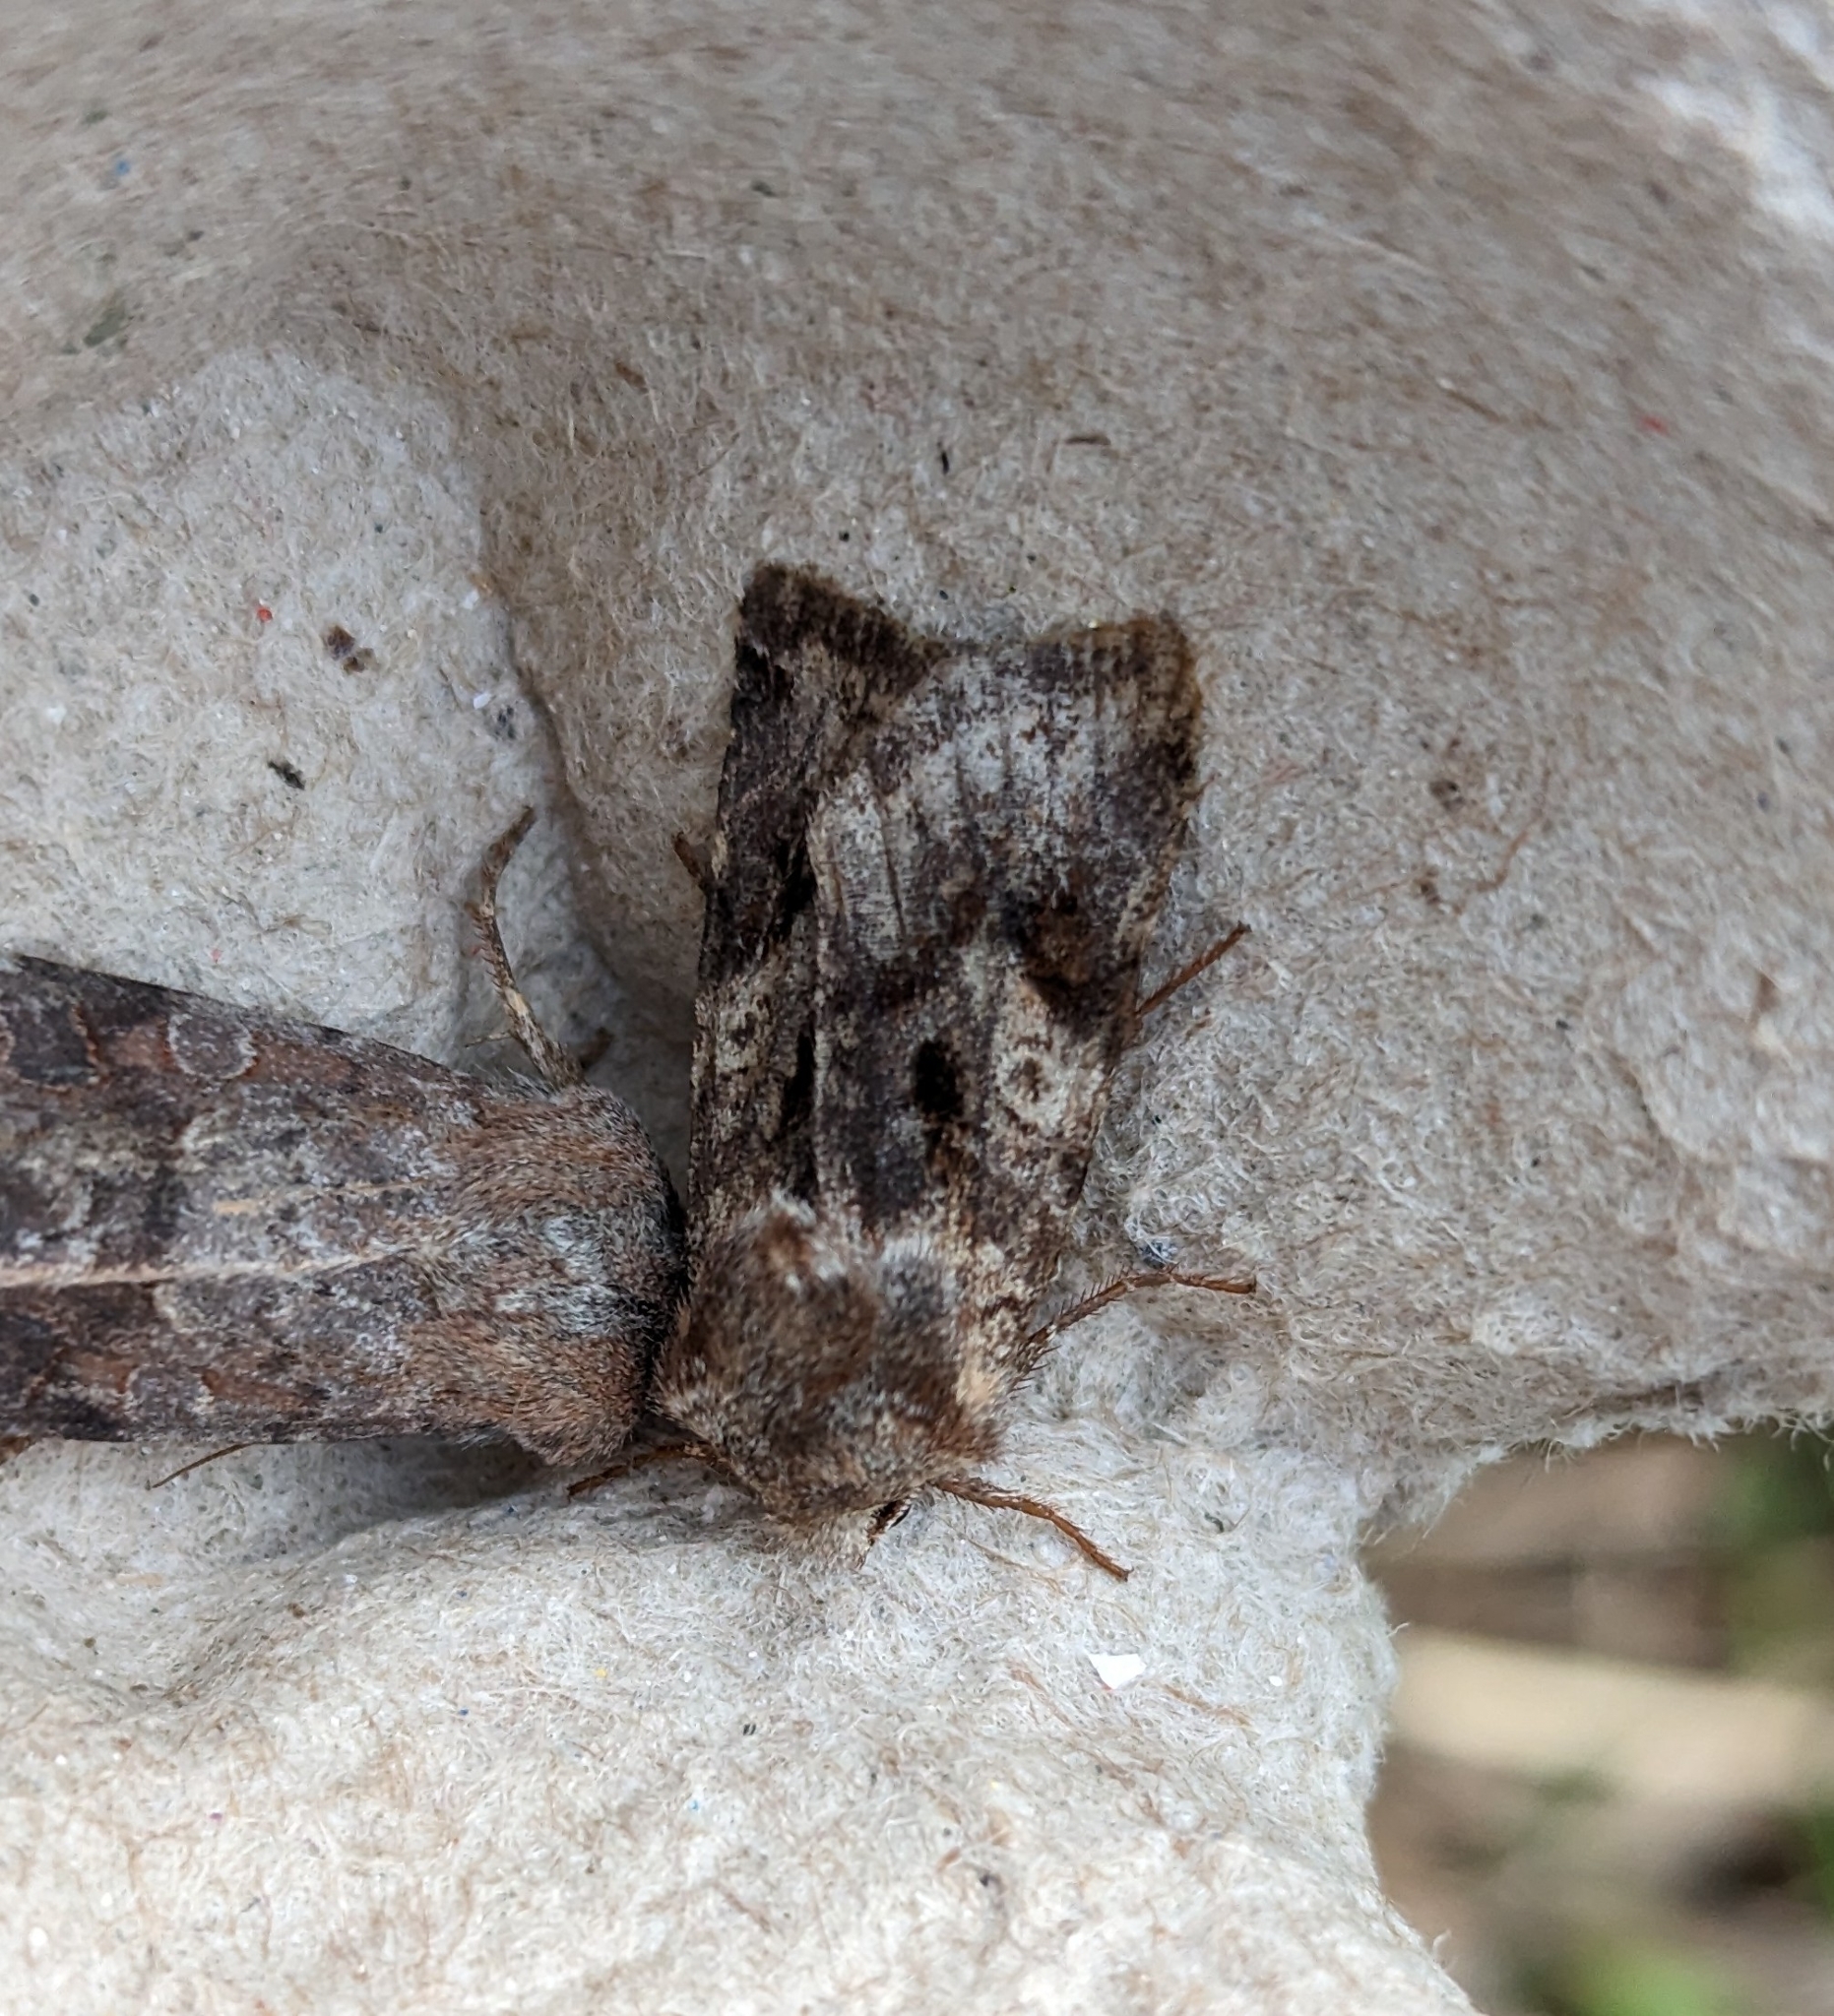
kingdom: Animalia
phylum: Arthropoda
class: Insecta
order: Lepidoptera
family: Noctuidae
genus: Cerastis
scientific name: Cerastis salicarum
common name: Willow dart
